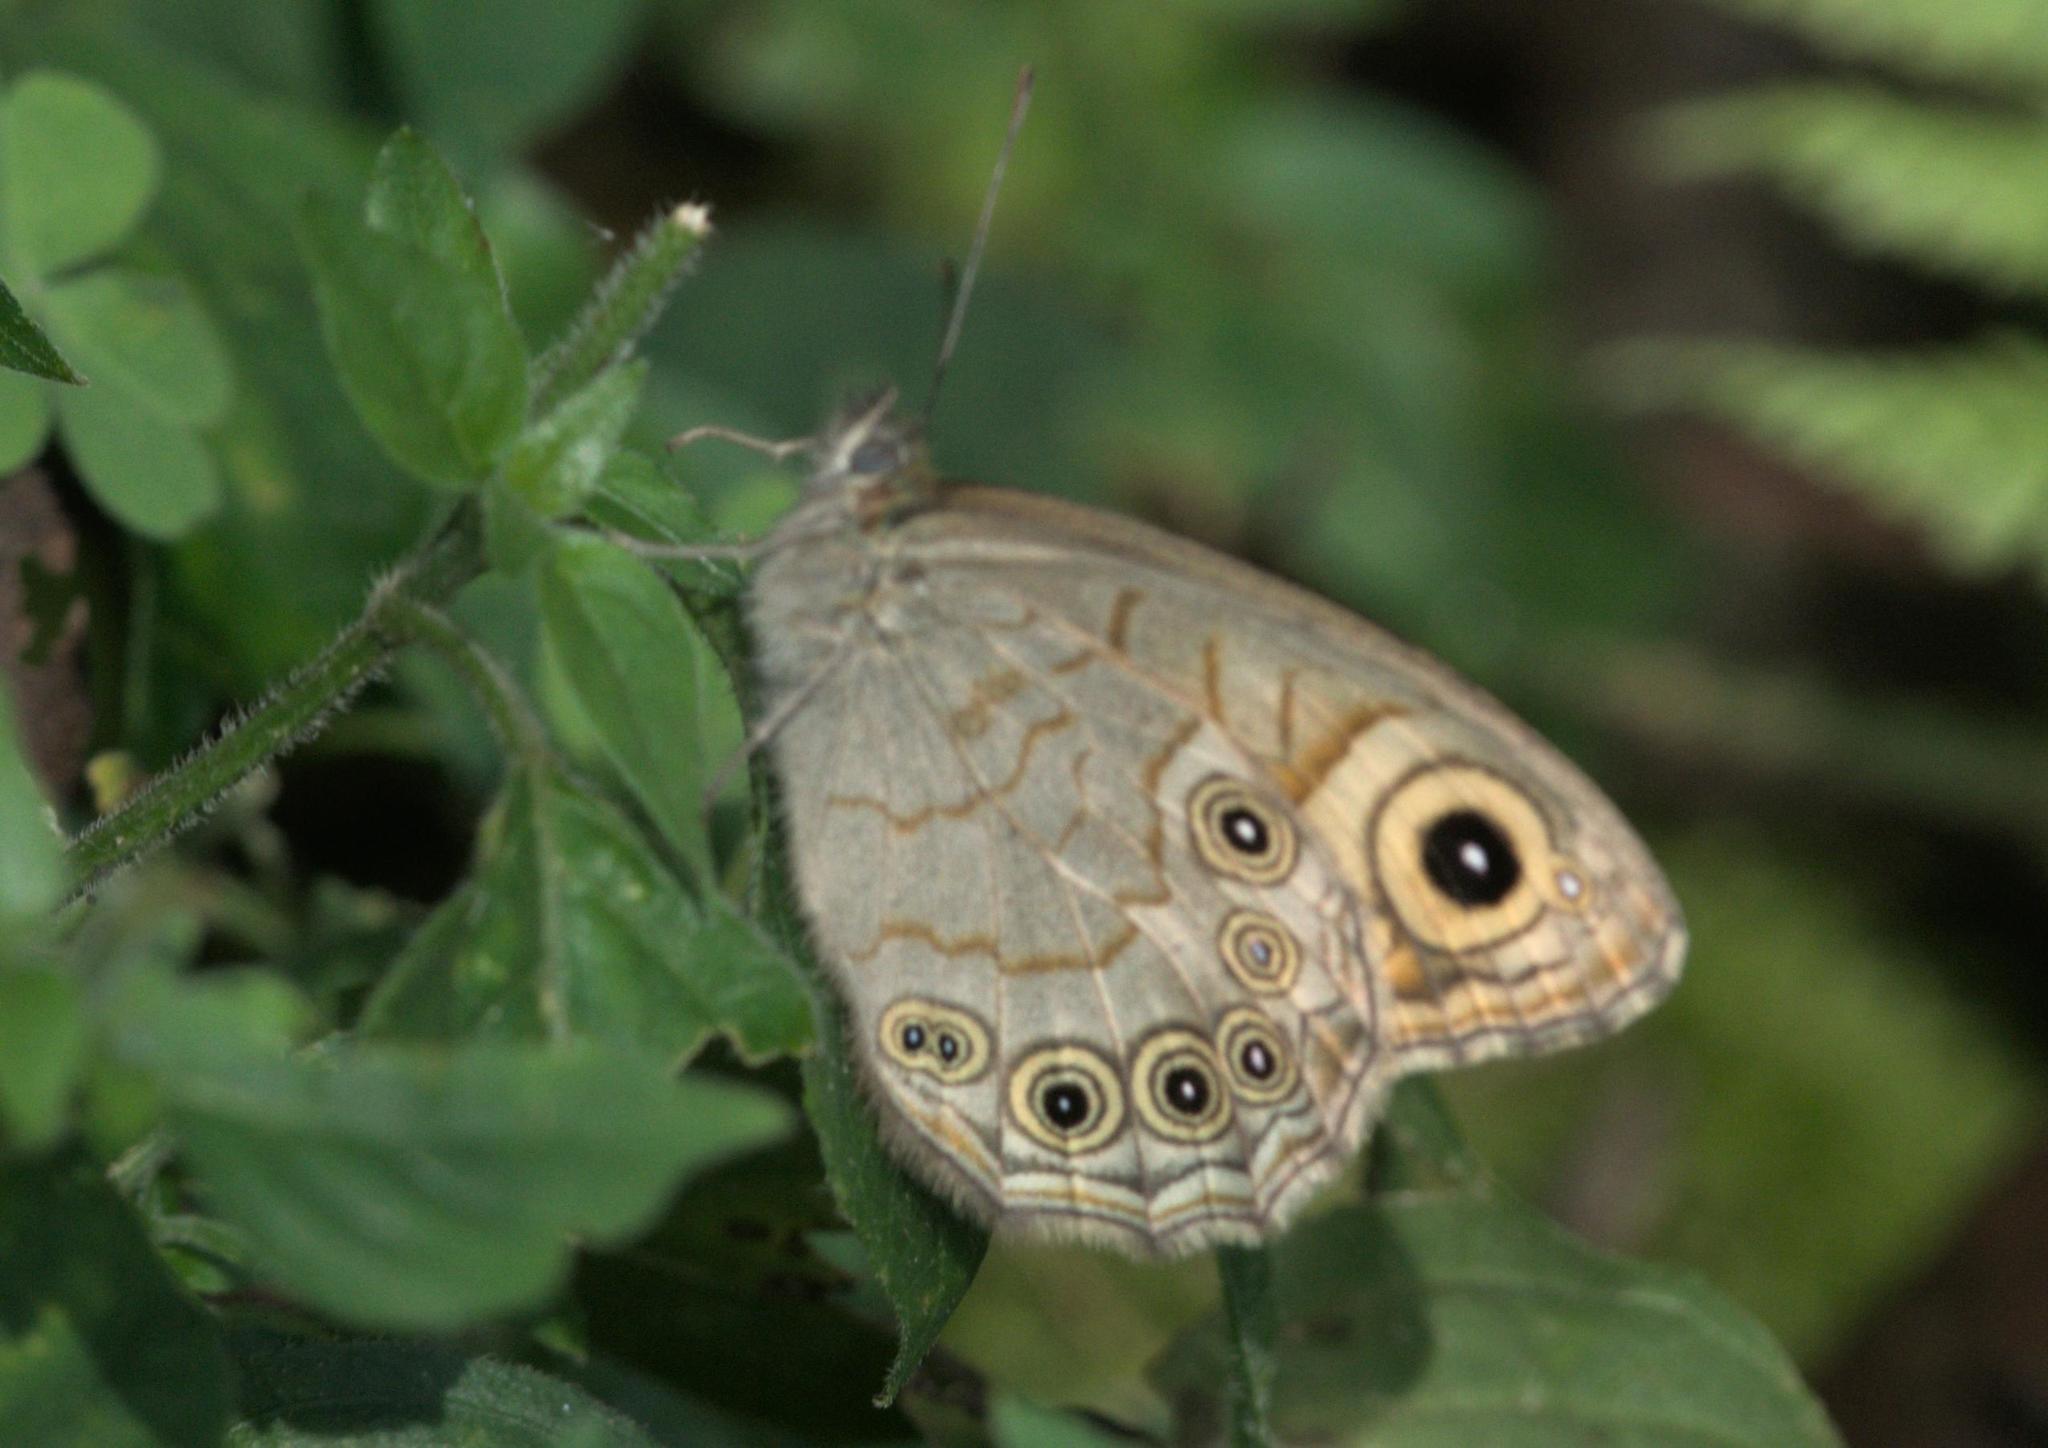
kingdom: Animalia
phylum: Arthropoda
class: Insecta
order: Lepidoptera
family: Nymphalidae
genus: Pararge
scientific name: Pararge Lasiommata schakra
